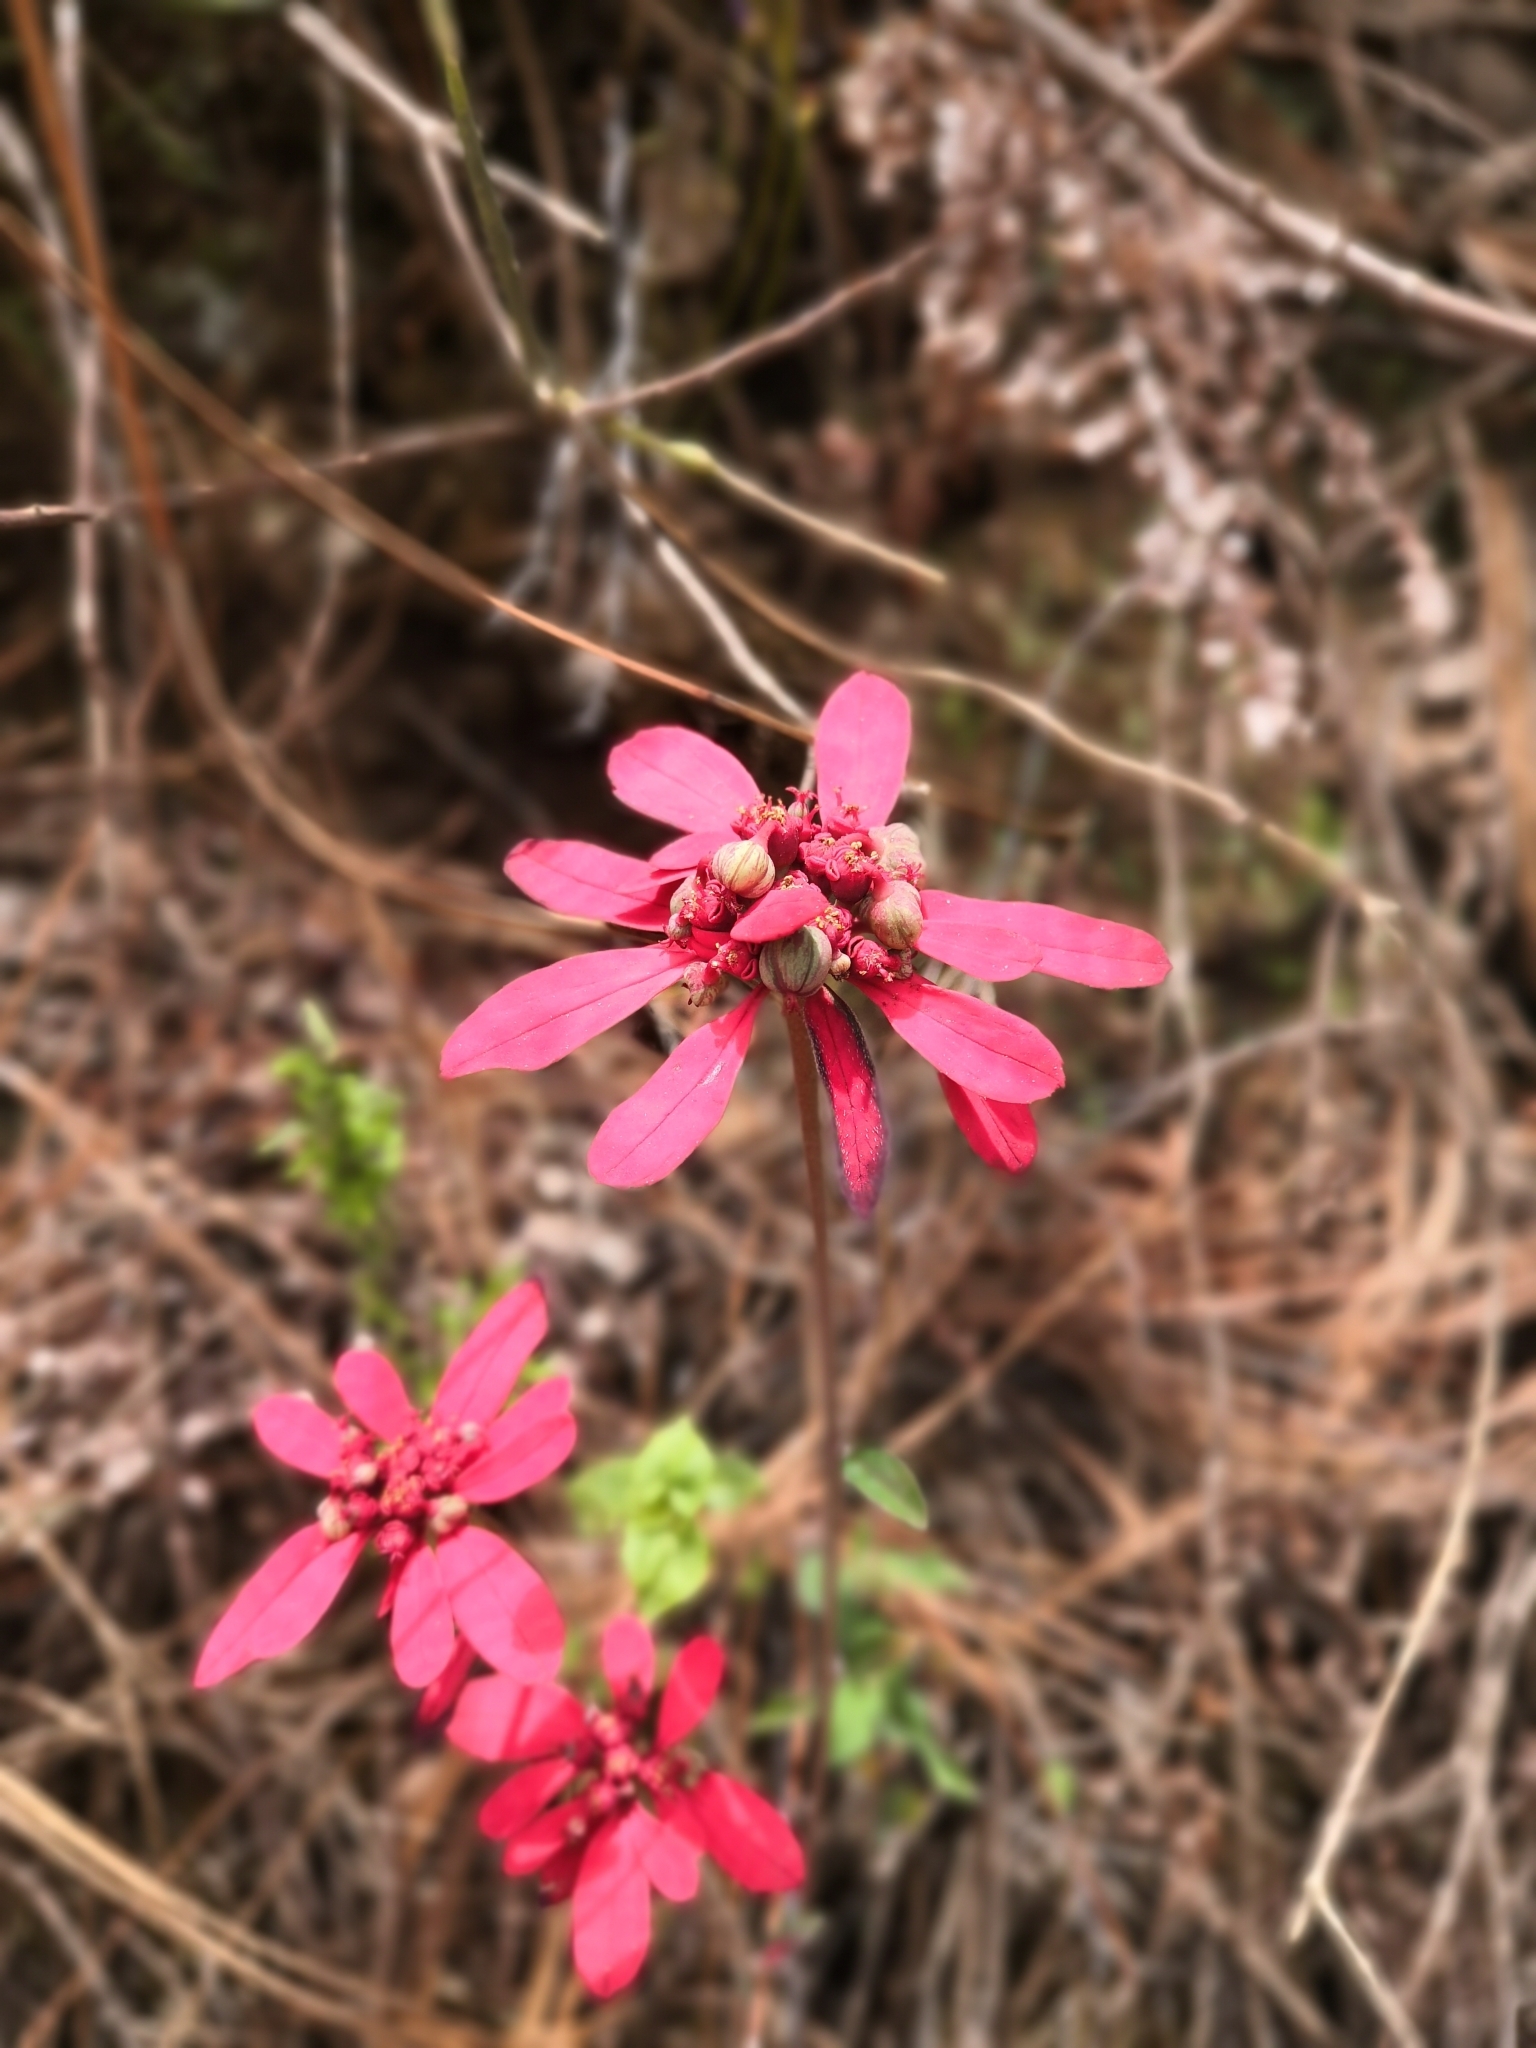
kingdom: Plantae
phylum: Tracheophyta
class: Magnoliopsida
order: Malpighiales
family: Euphorbiaceae
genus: Euphorbia
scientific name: Euphorbia strigosa
